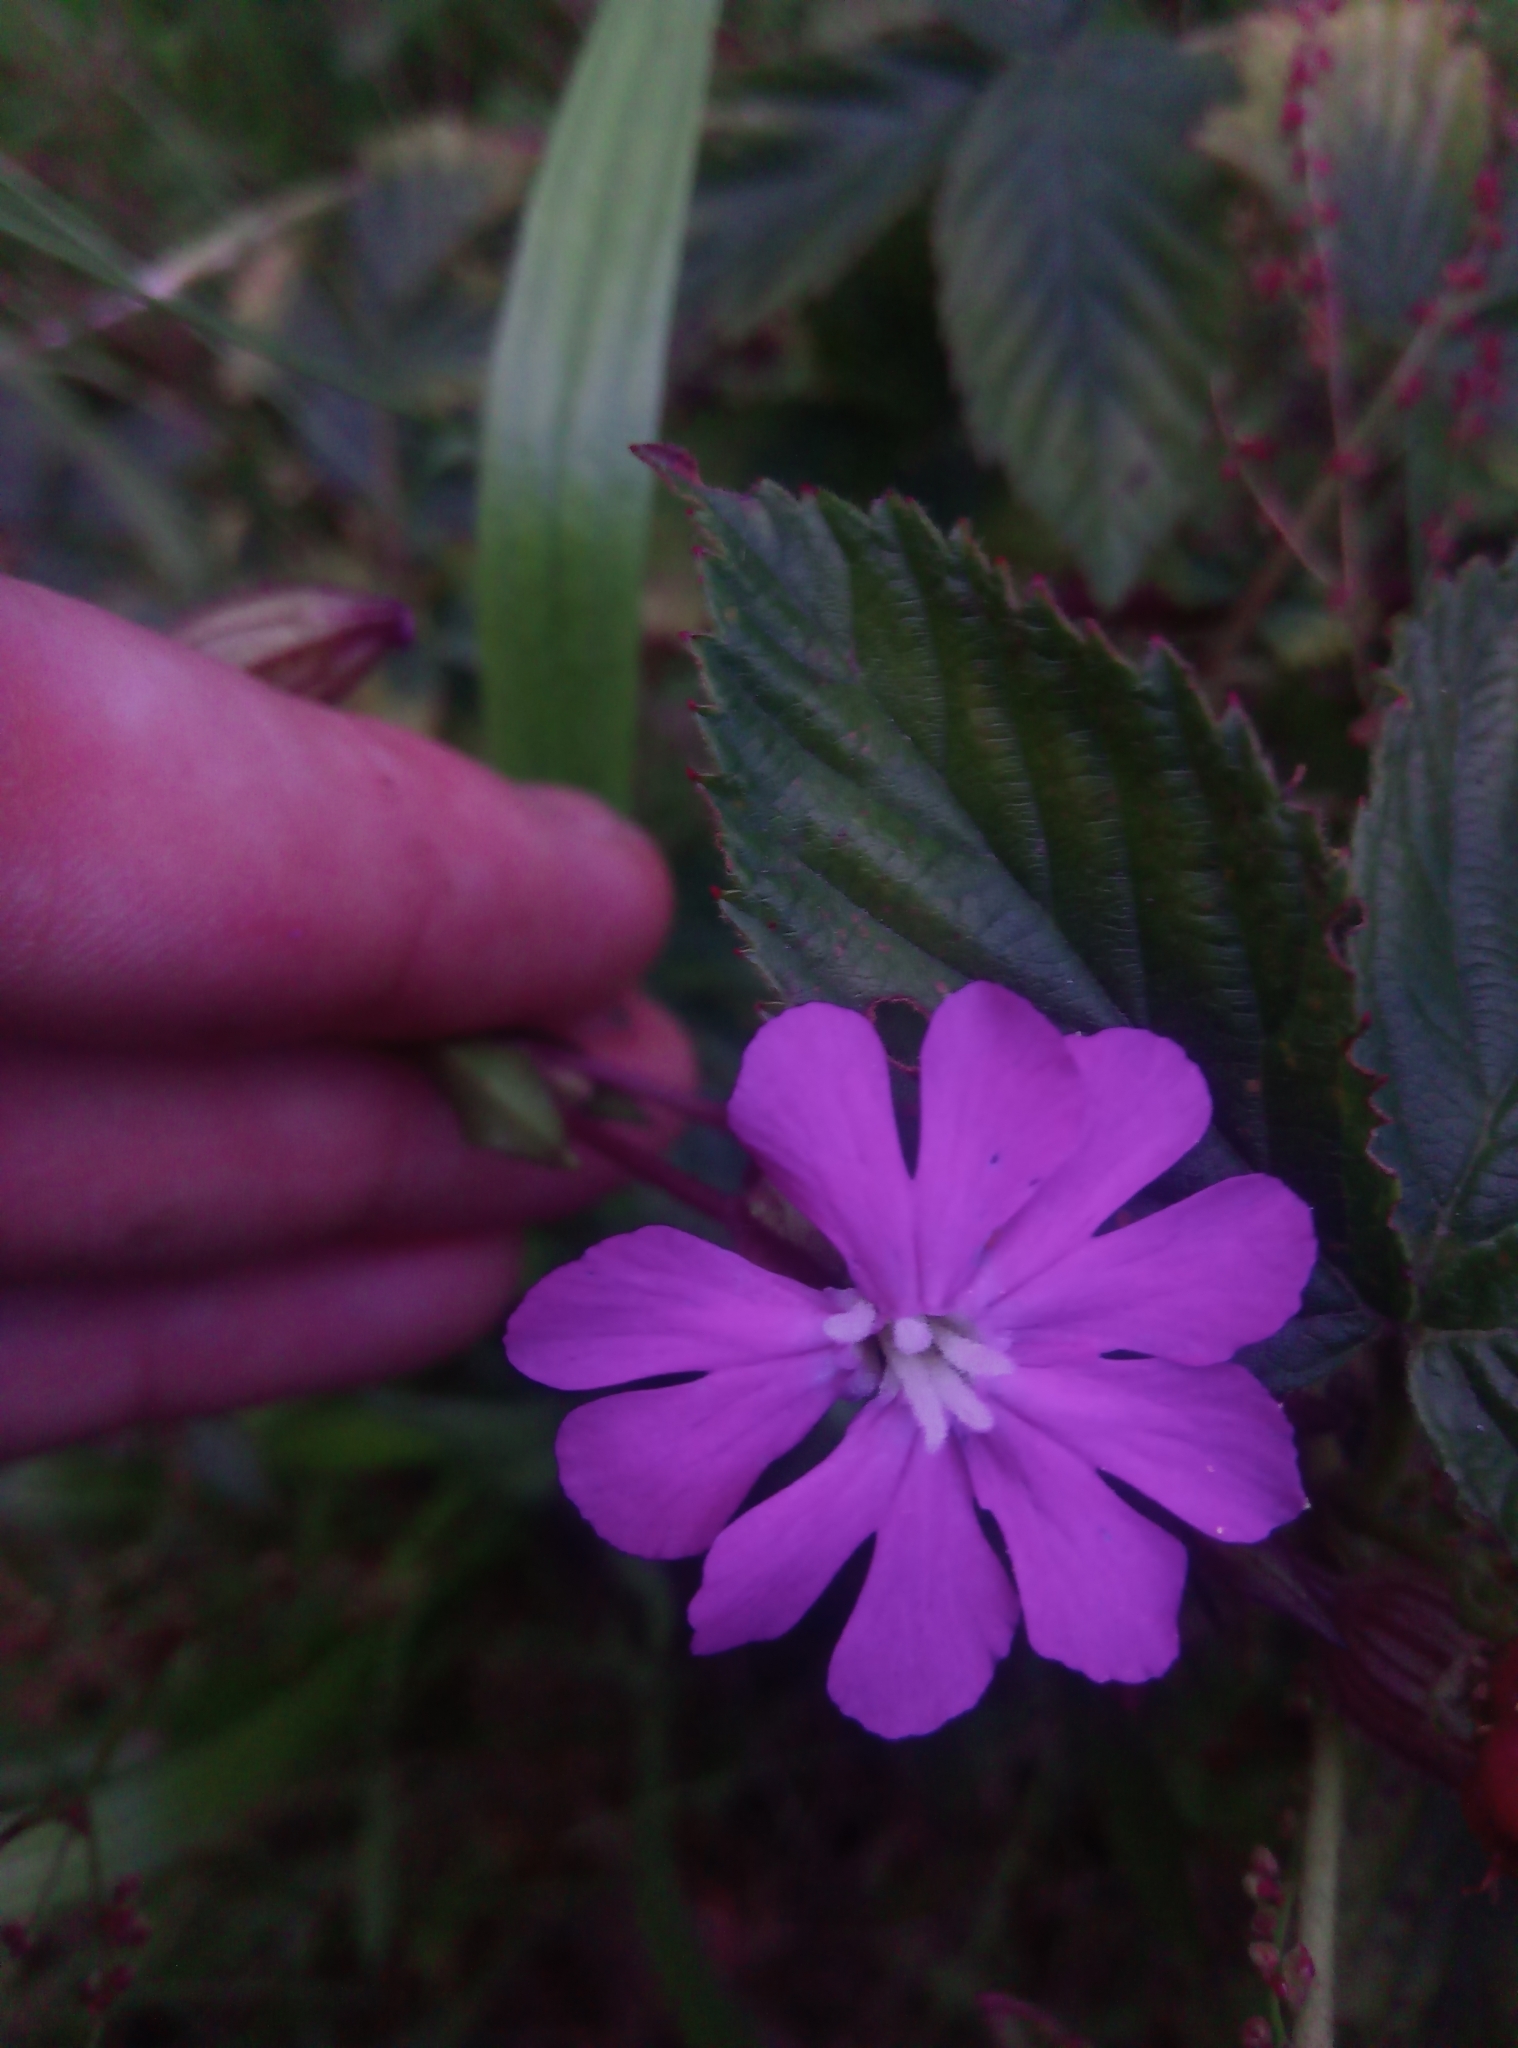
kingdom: Plantae
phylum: Tracheophyta
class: Magnoliopsida
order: Caryophyllales
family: Caryophyllaceae
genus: Silene
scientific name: Silene dioica
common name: Red campion
